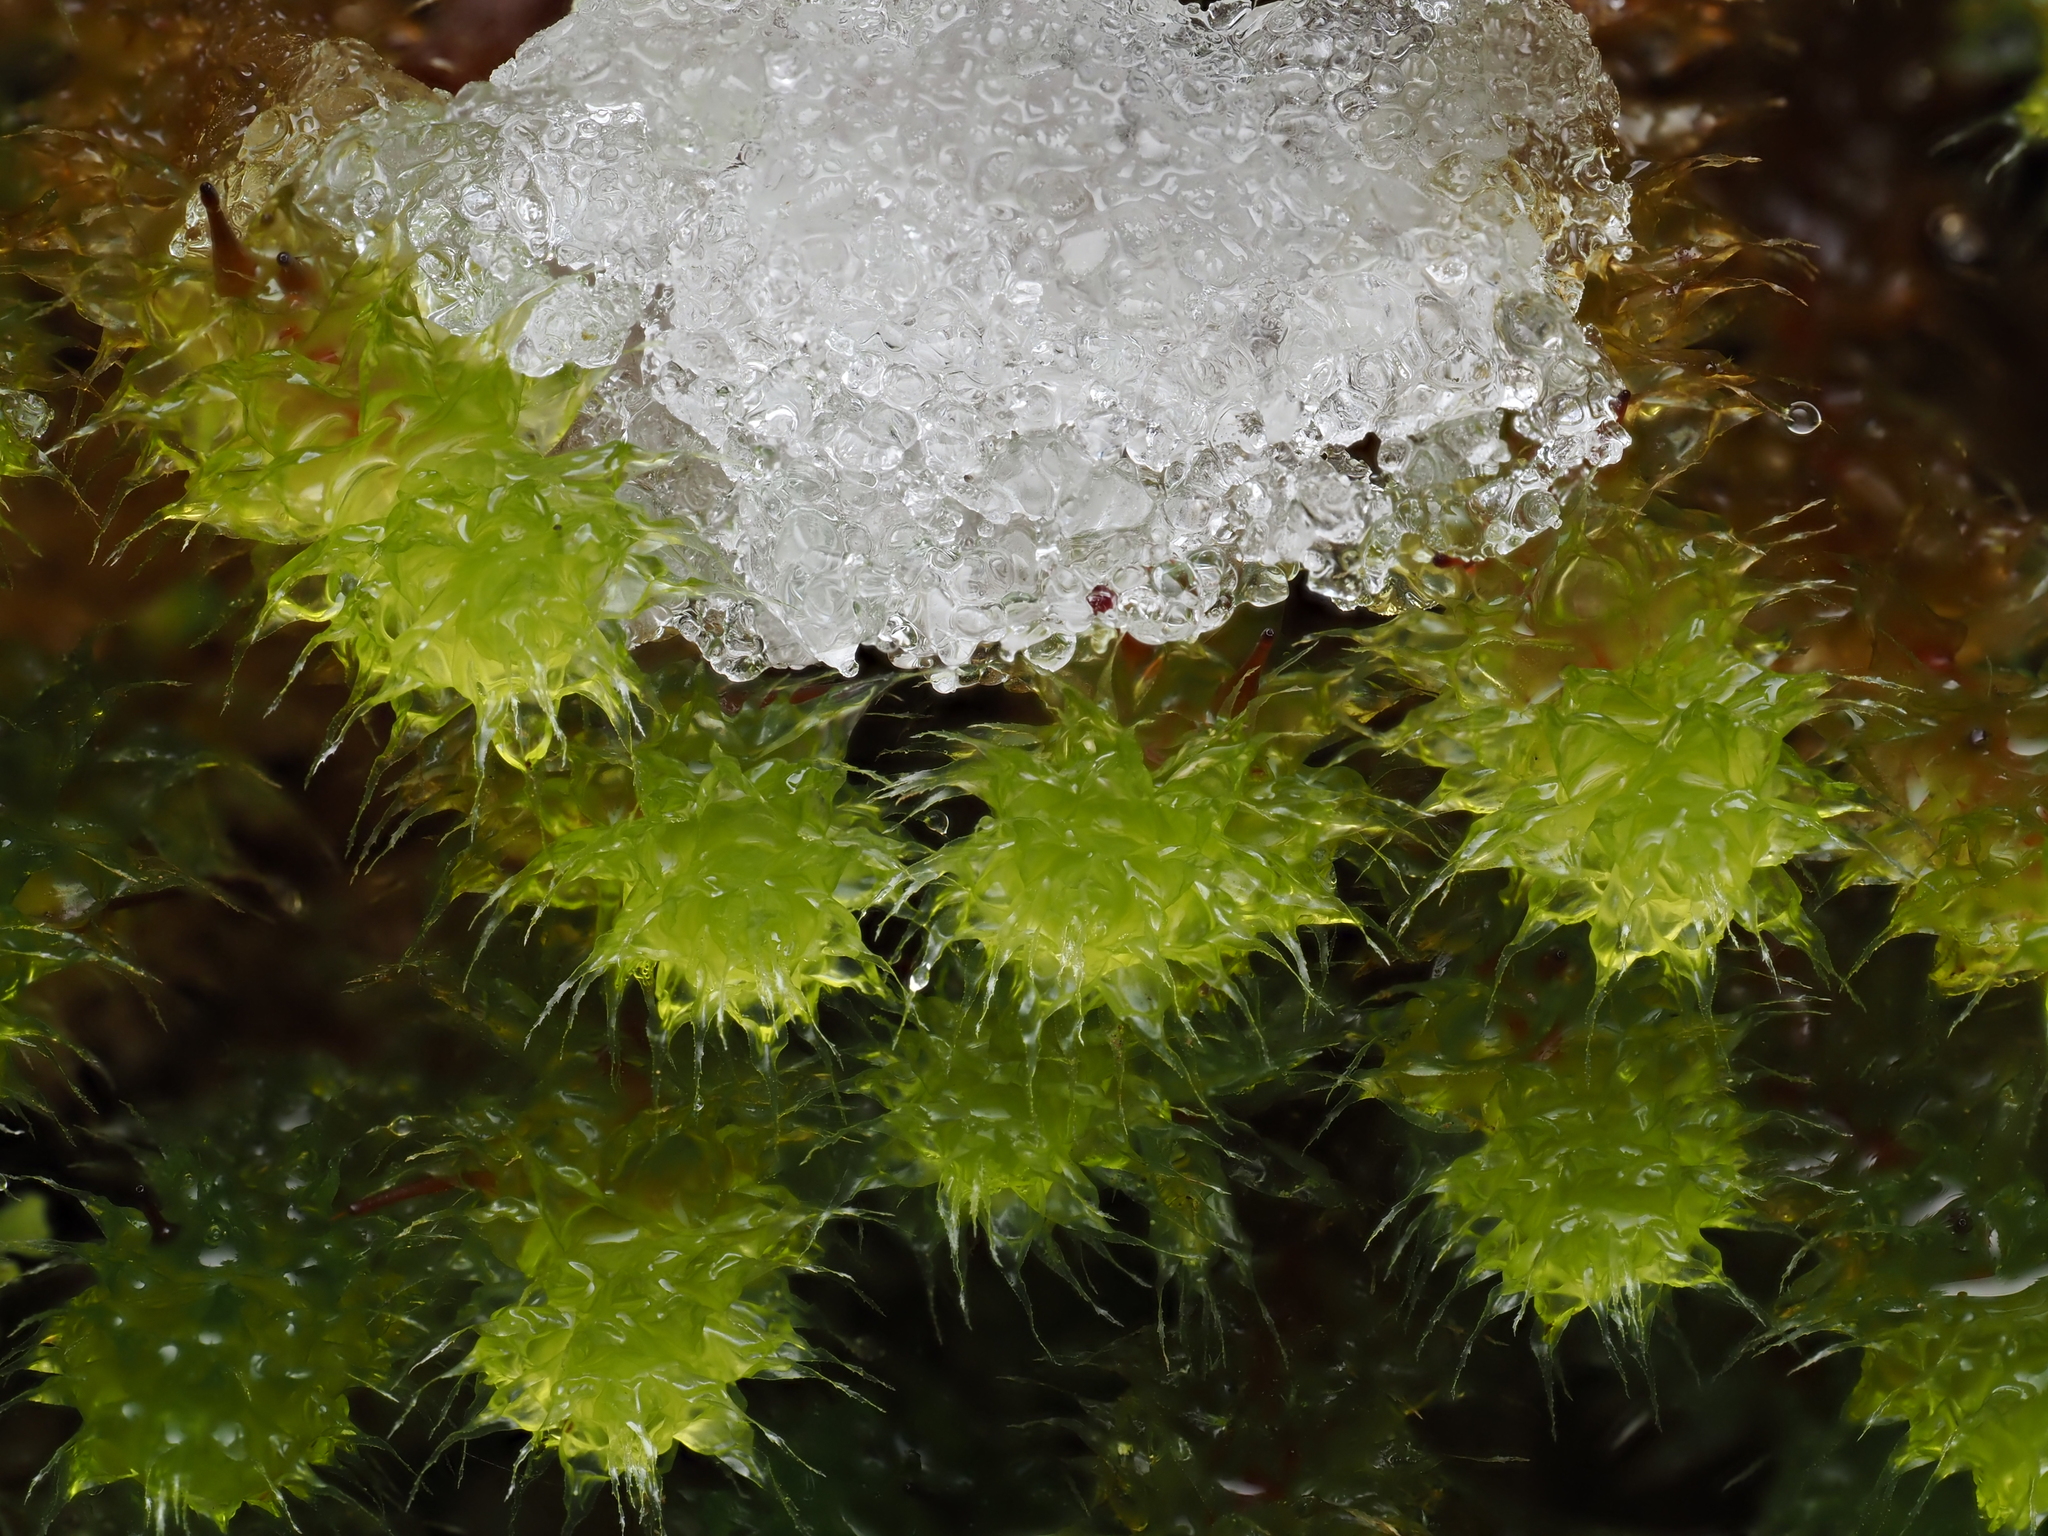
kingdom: Plantae
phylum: Bryophyta
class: Bryopsida
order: Ptychomniales
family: Ptychomniaceae
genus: Ptychomnion
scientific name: Ptychomnion aciculare
